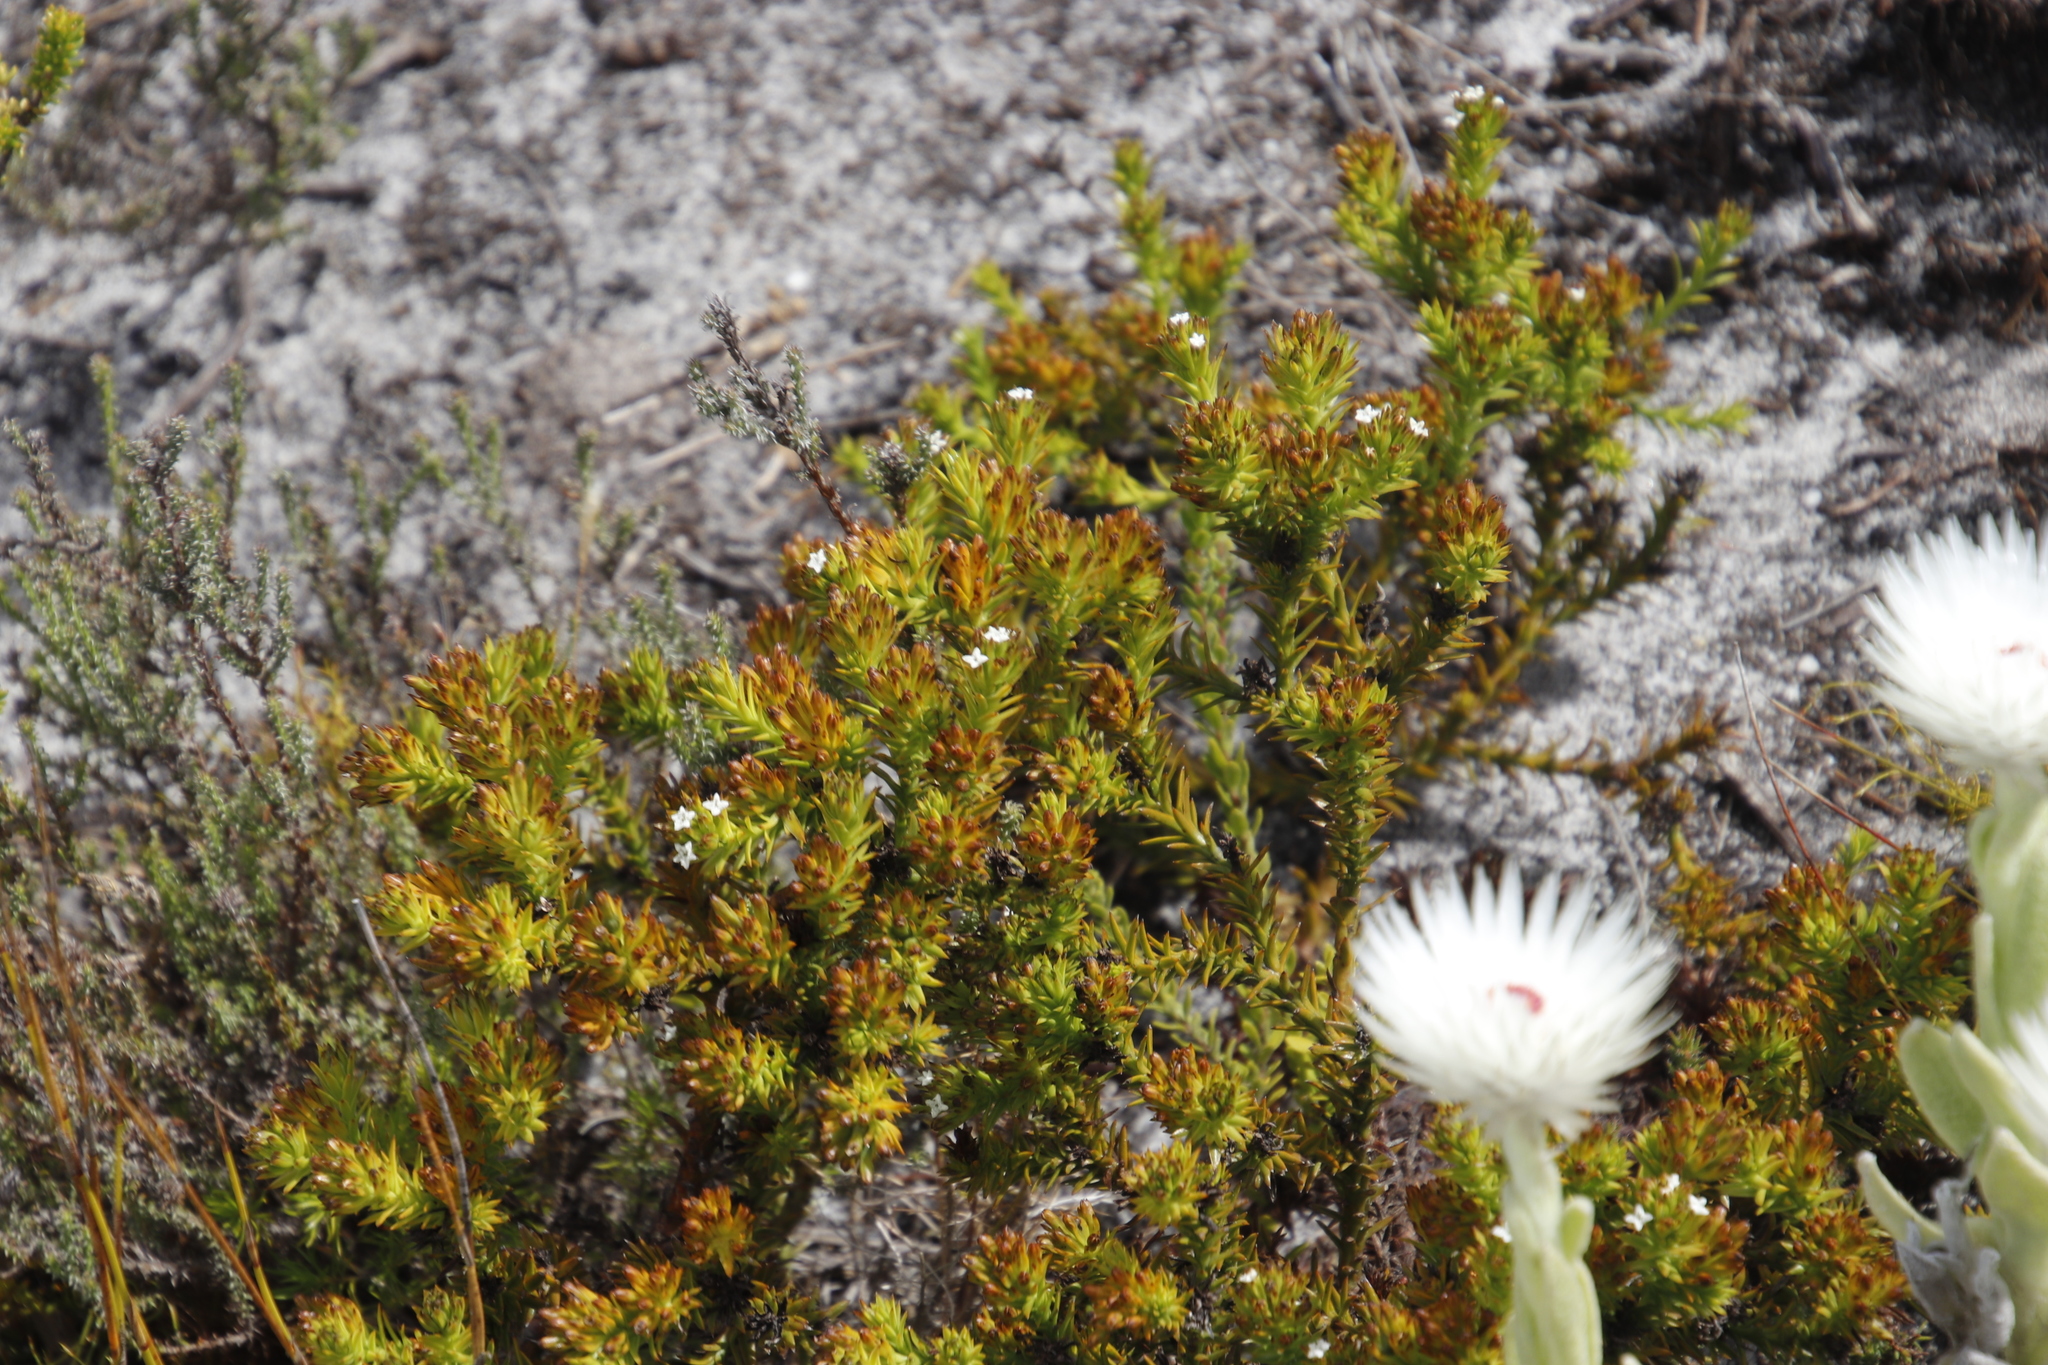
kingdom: Plantae
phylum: Tracheophyta
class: Magnoliopsida
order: Santalales
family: Thesiaceae
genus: Thesium
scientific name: Thesium viridifolium
